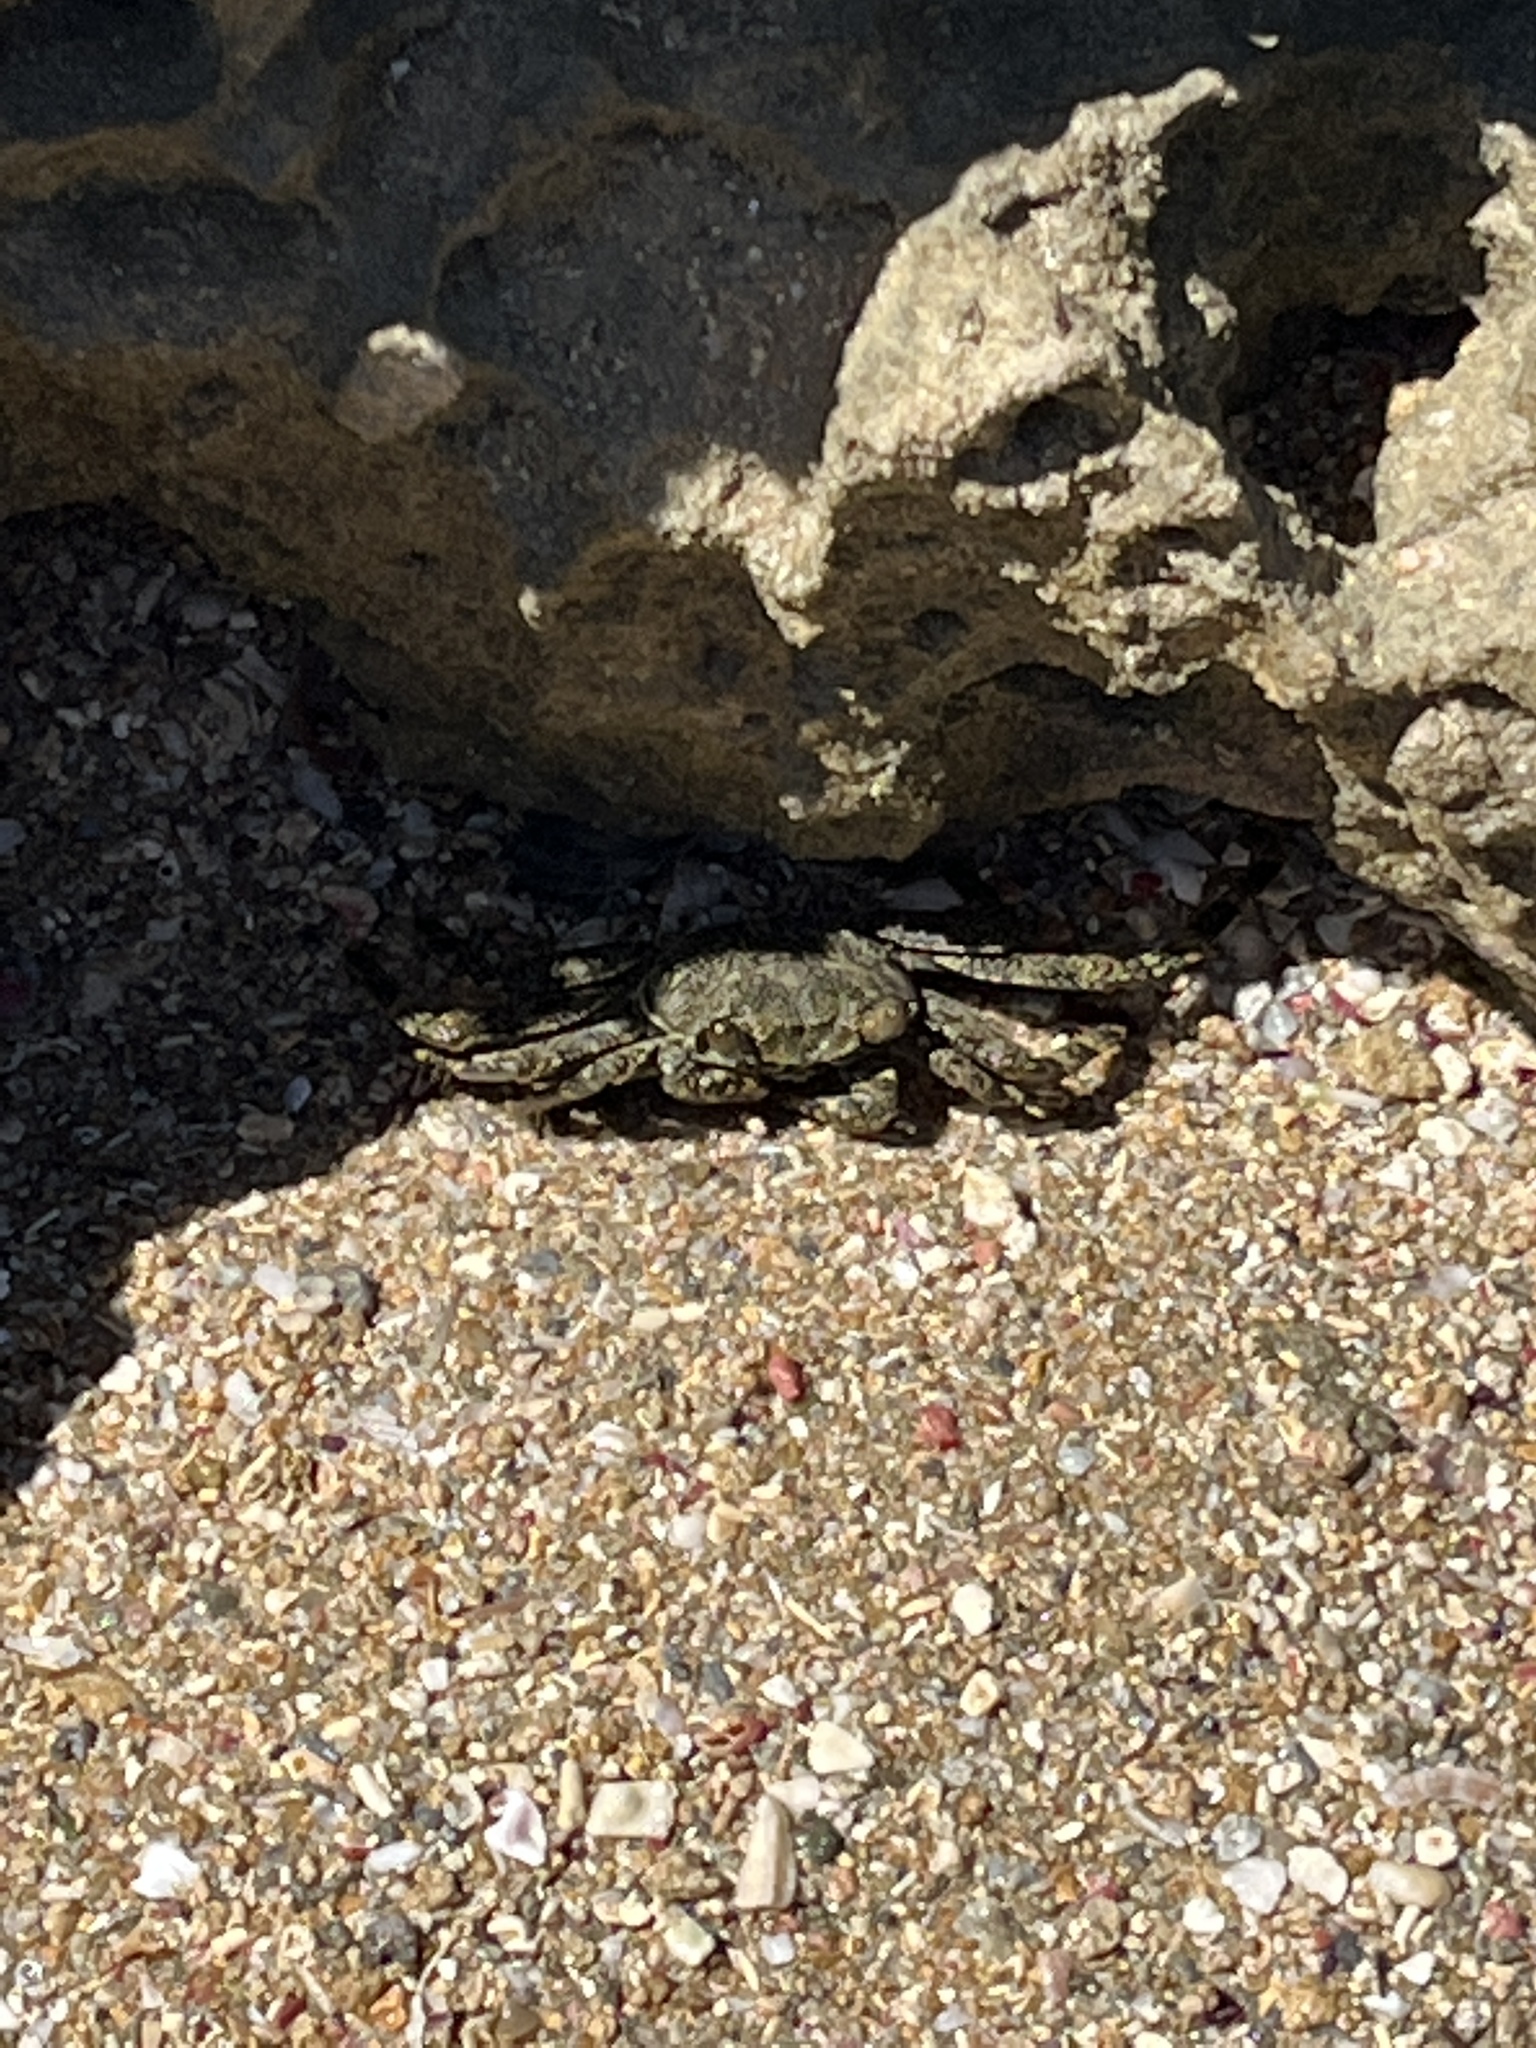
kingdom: Animalia
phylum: Arthropoda
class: Malacostraca
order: Decapoda
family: Grapsidae
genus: Grapsus
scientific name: Grapsus grapsus
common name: Sally lightfoot
